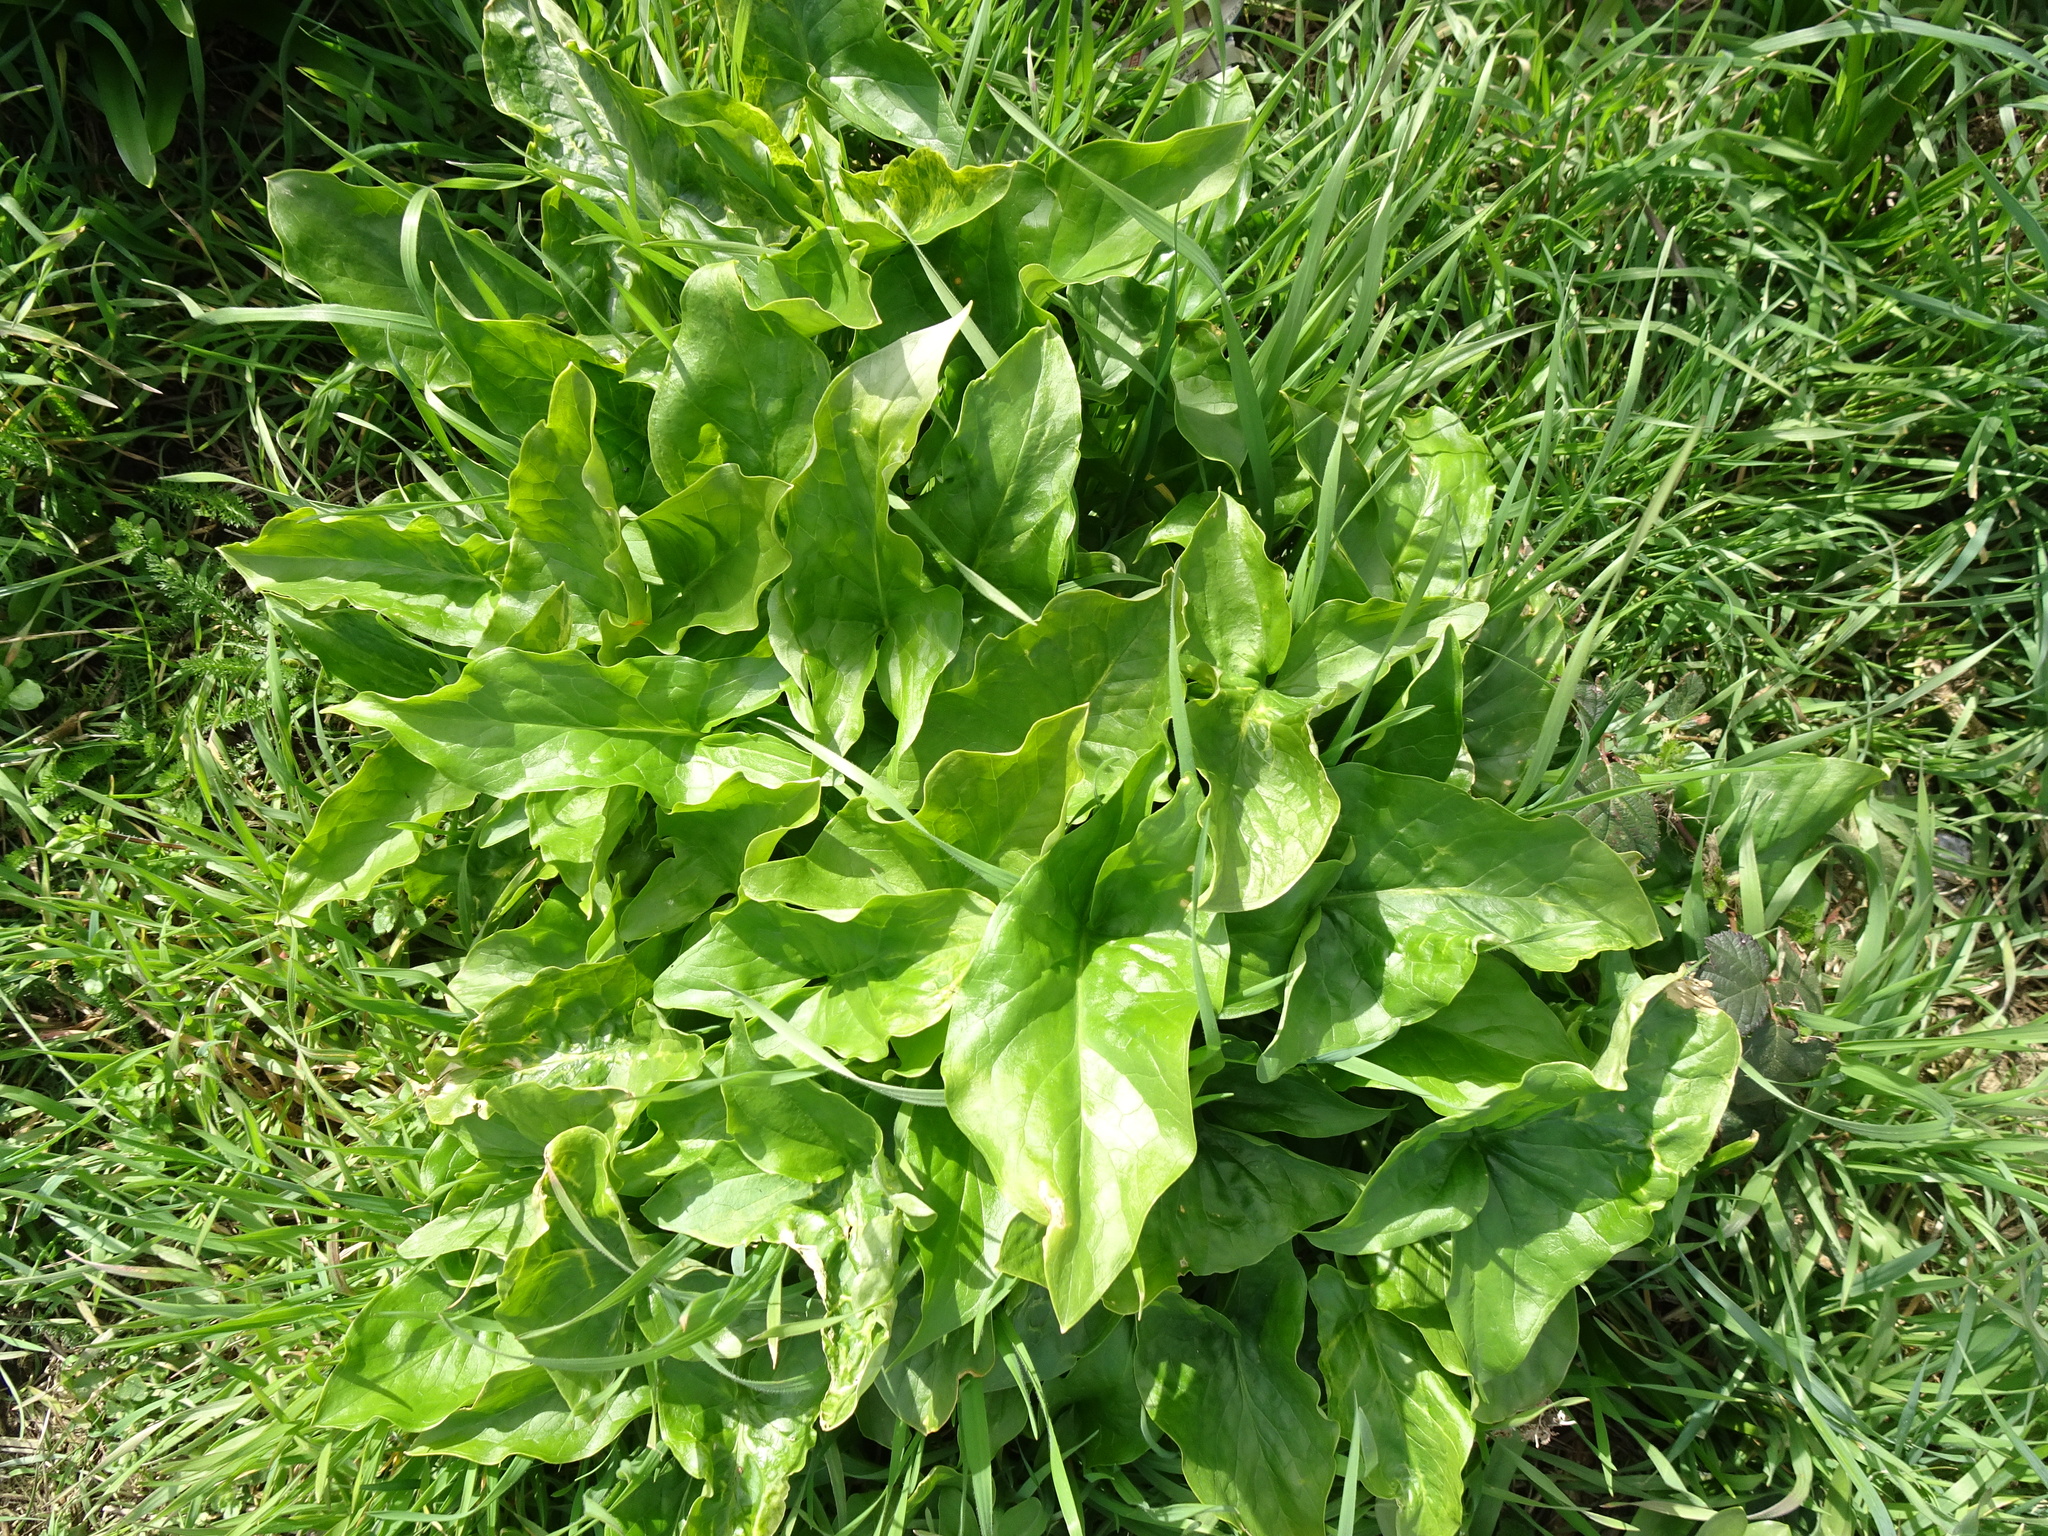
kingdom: Plantae
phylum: Tracheophyta
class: Liliopsida
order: Alismatales
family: Araceae
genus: Arum
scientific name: Arum maculatum
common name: Lords-and-ladies
